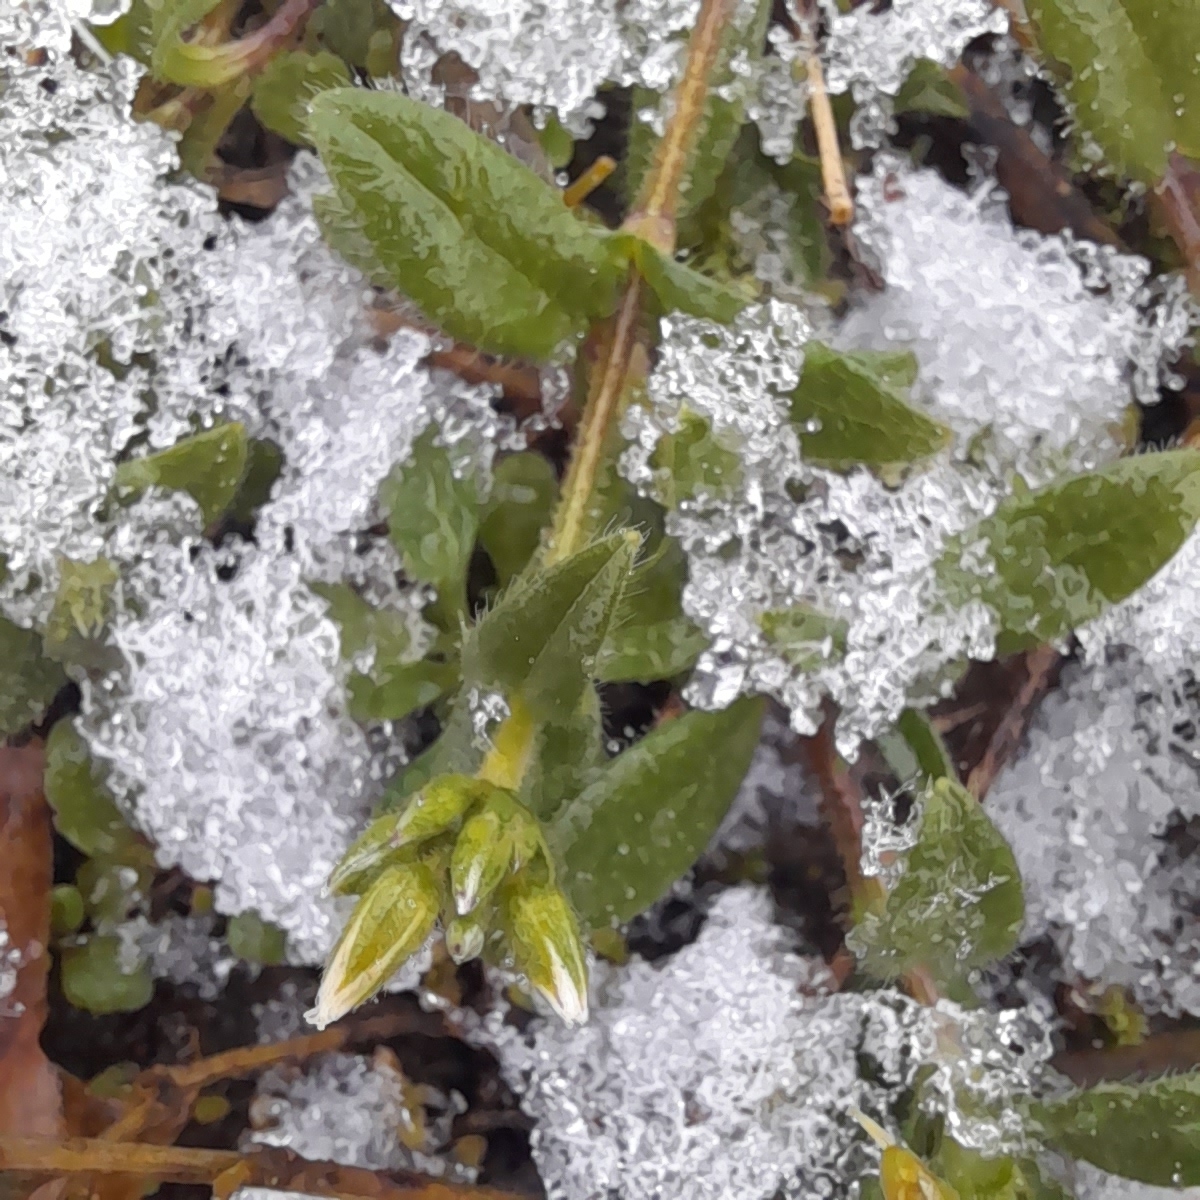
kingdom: Plantae
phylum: Tracheophyta
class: Magnoliopsida
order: Caryophyllales
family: Caryophyllaceae
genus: Cerastium
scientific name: Cerastium holosteoides
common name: Big chickweed
